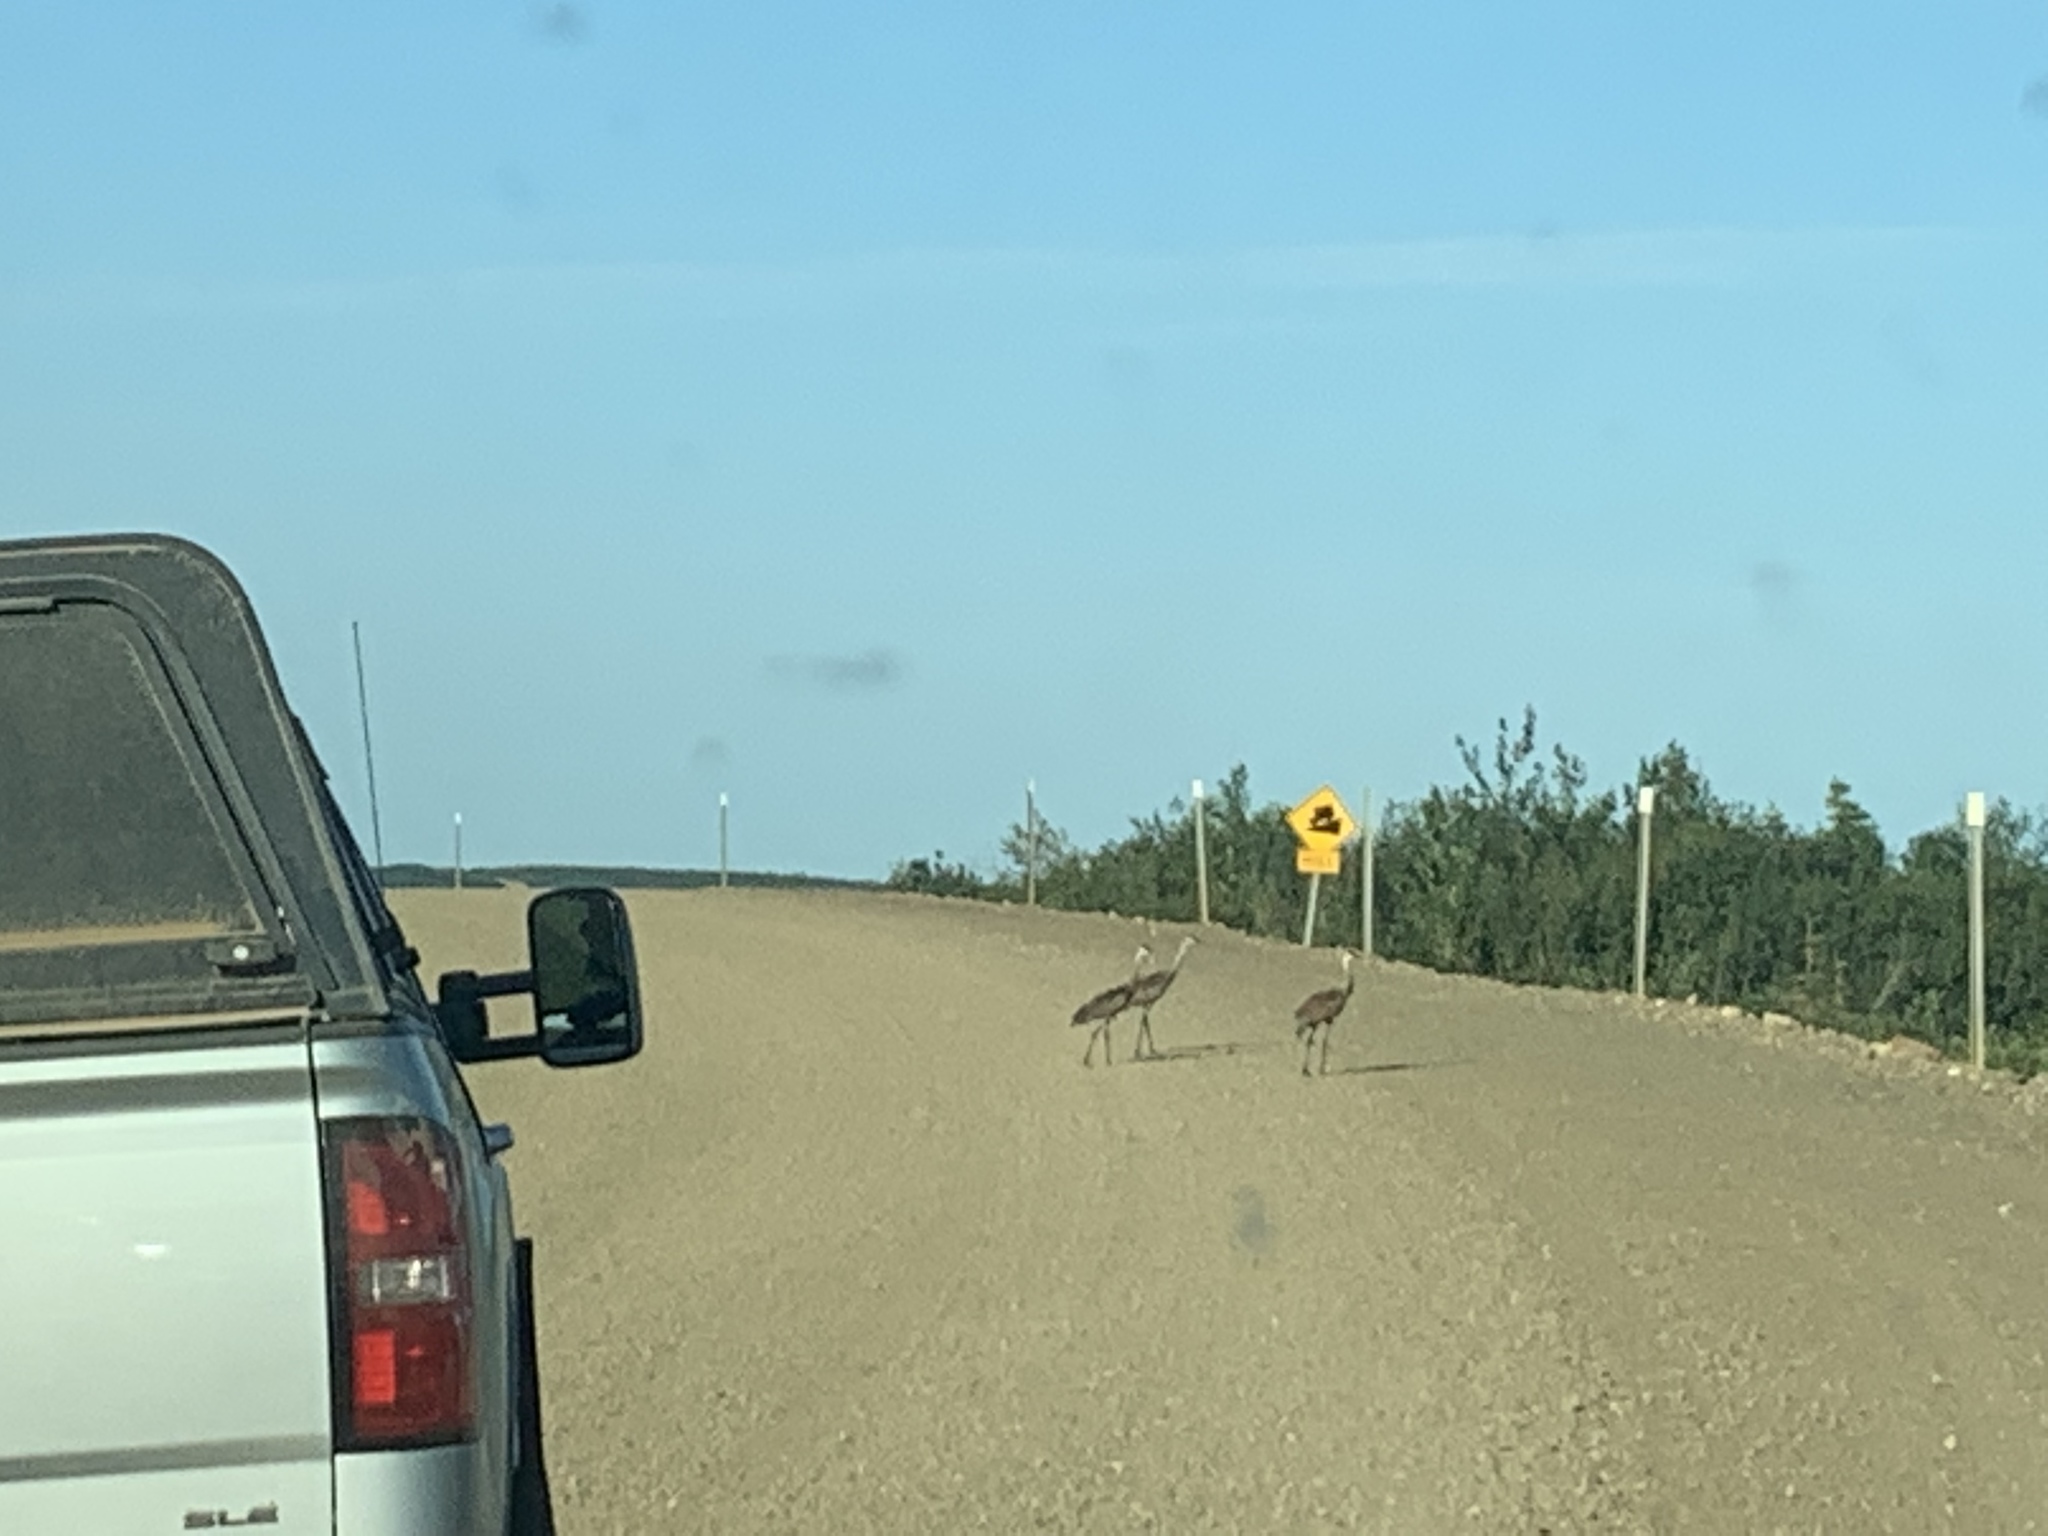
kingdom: Animalia
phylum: Chordata
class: Aves
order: Gruiformes
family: Gruidae
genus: Grus
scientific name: Grus canadensis
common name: Sandhill crane
